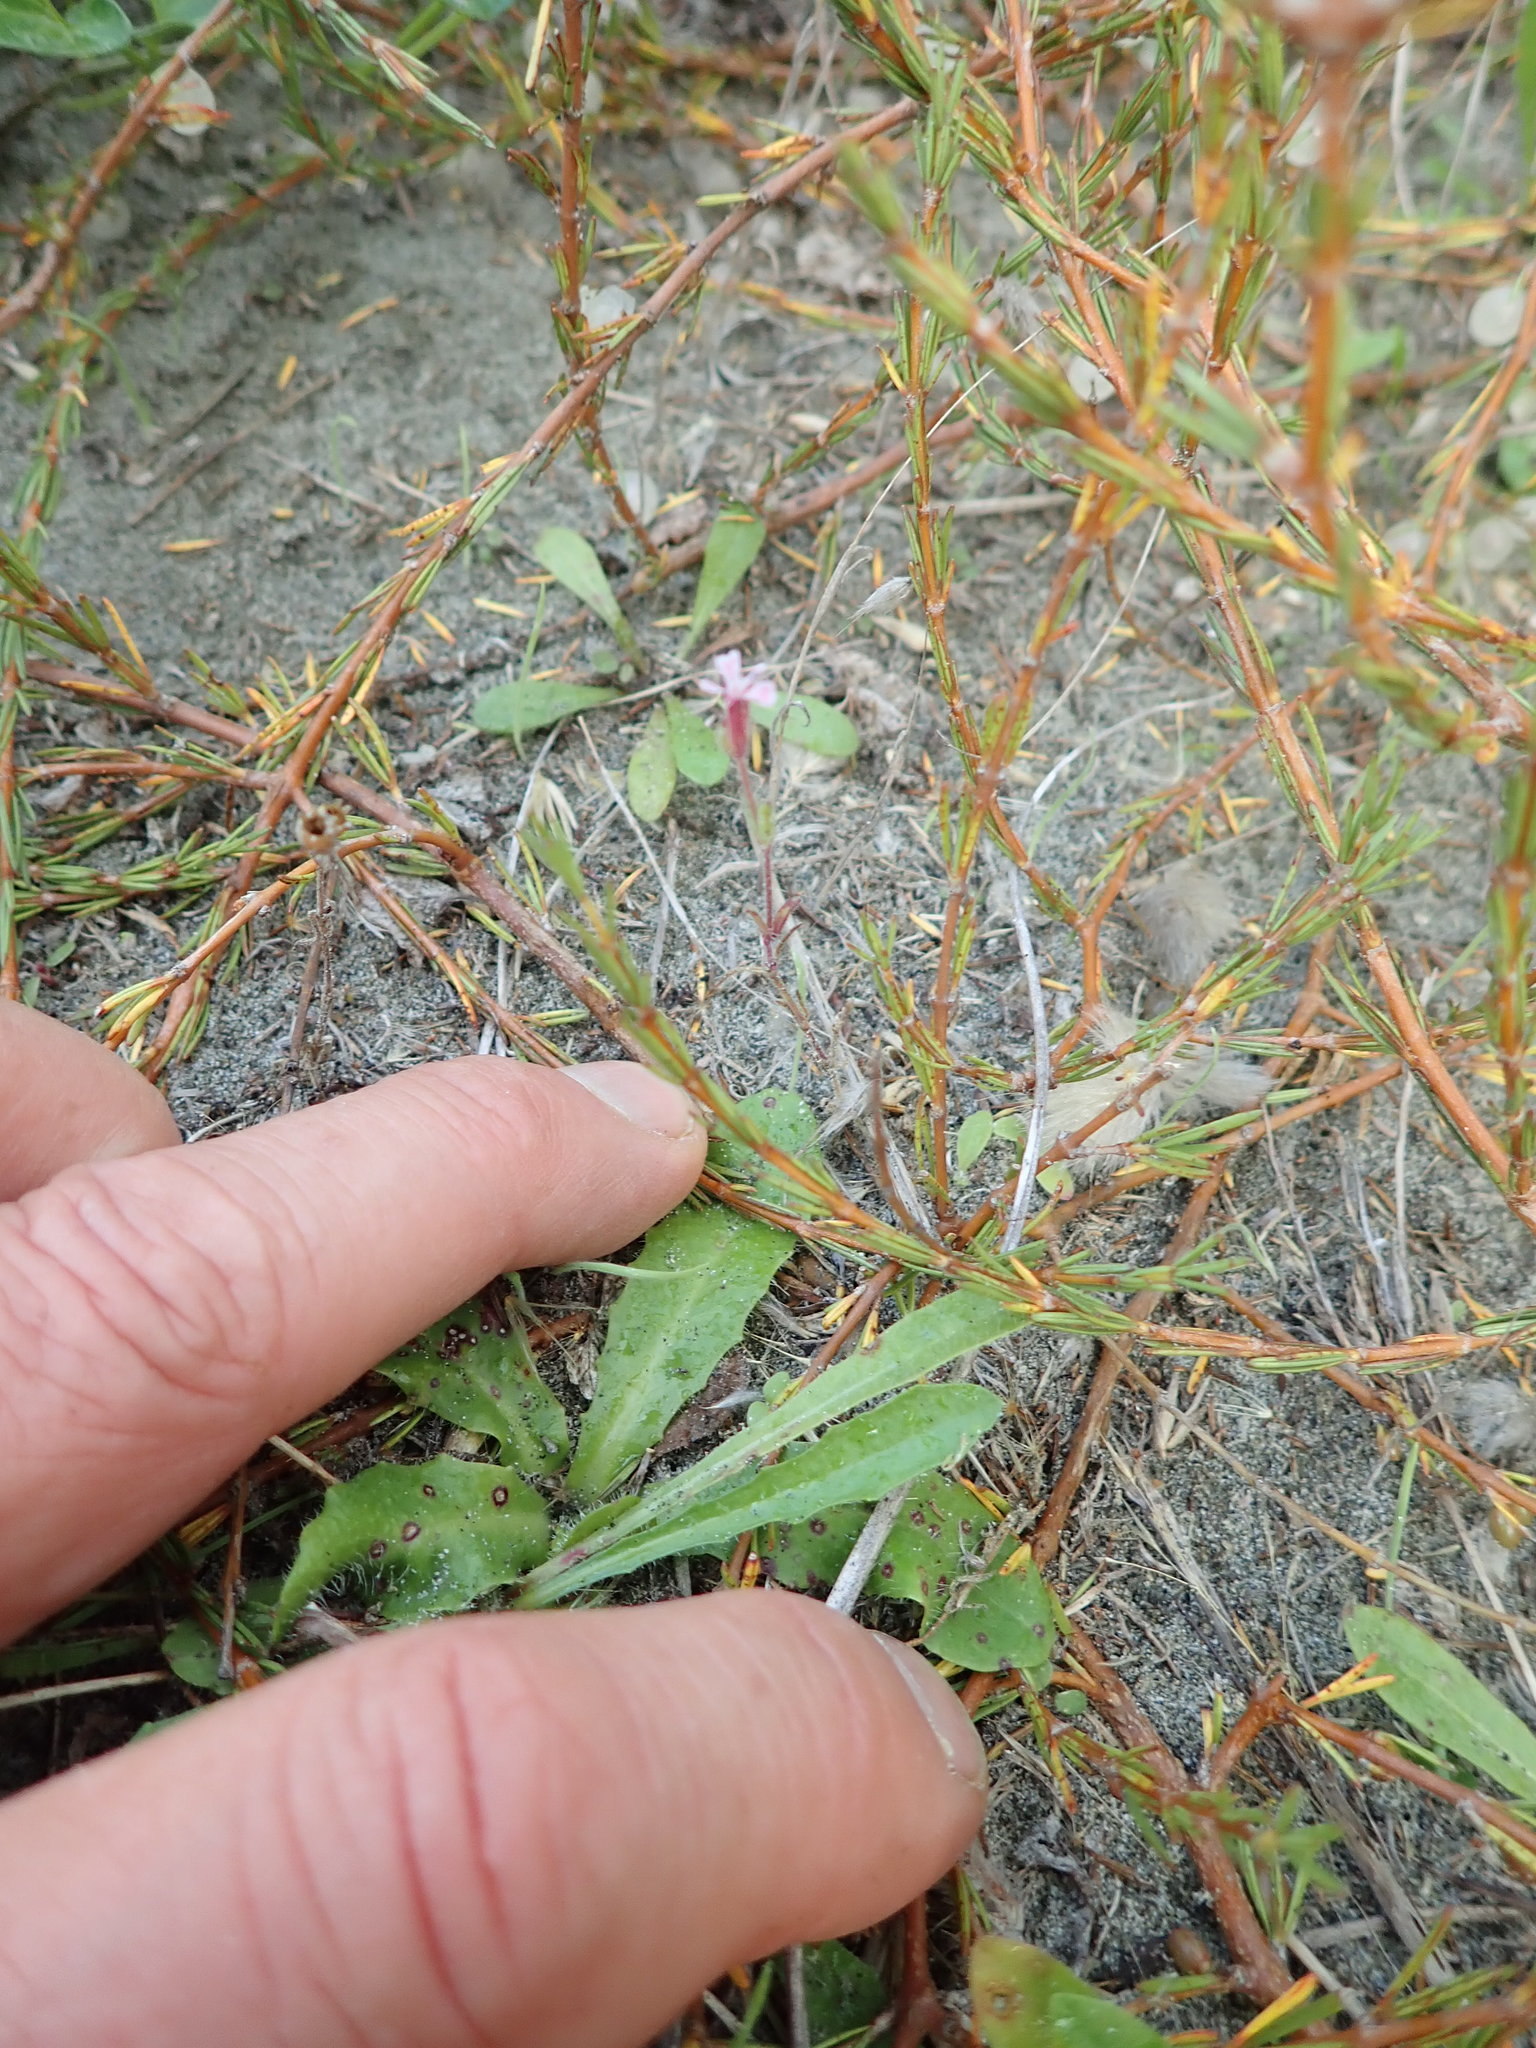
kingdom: Plantae
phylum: Tracheophyta
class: Magnoliopsida
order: Caryophyllales
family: Caryophyllaceae
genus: Silene
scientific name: Silene gallica
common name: Small-flowered catchfly
